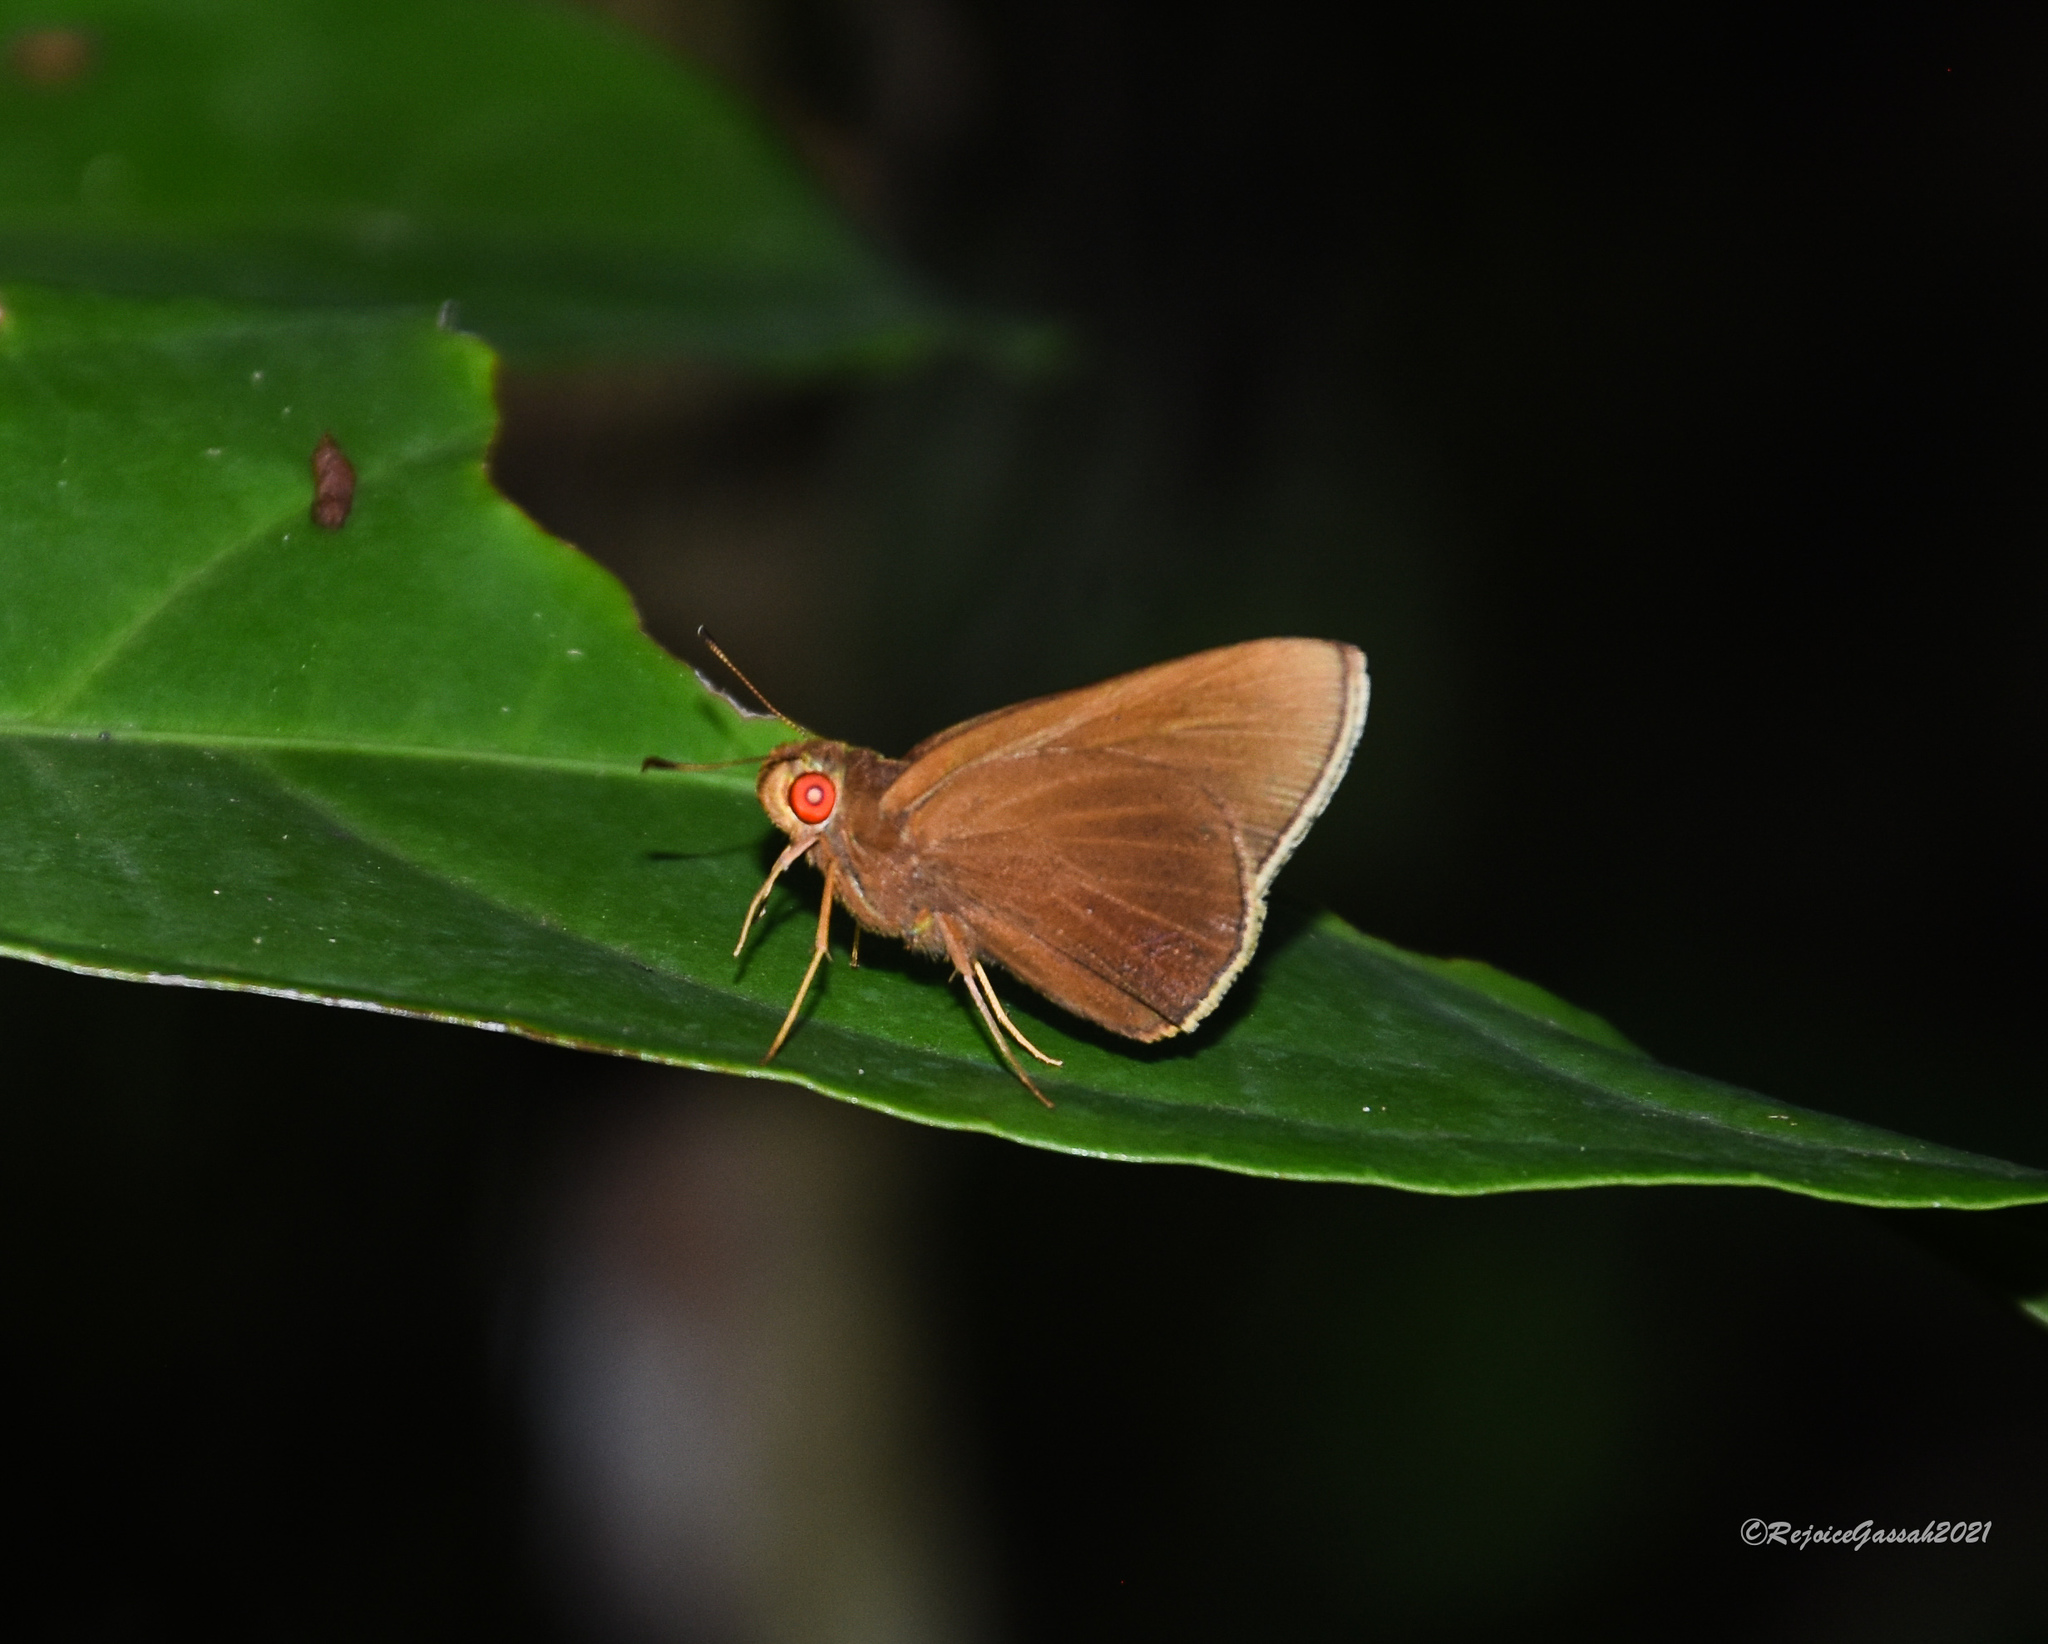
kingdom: Animalia
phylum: Arthropoda
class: Insecta
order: Lepidoptera
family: Hesperiidae
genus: Matapa
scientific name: Matapa aria
